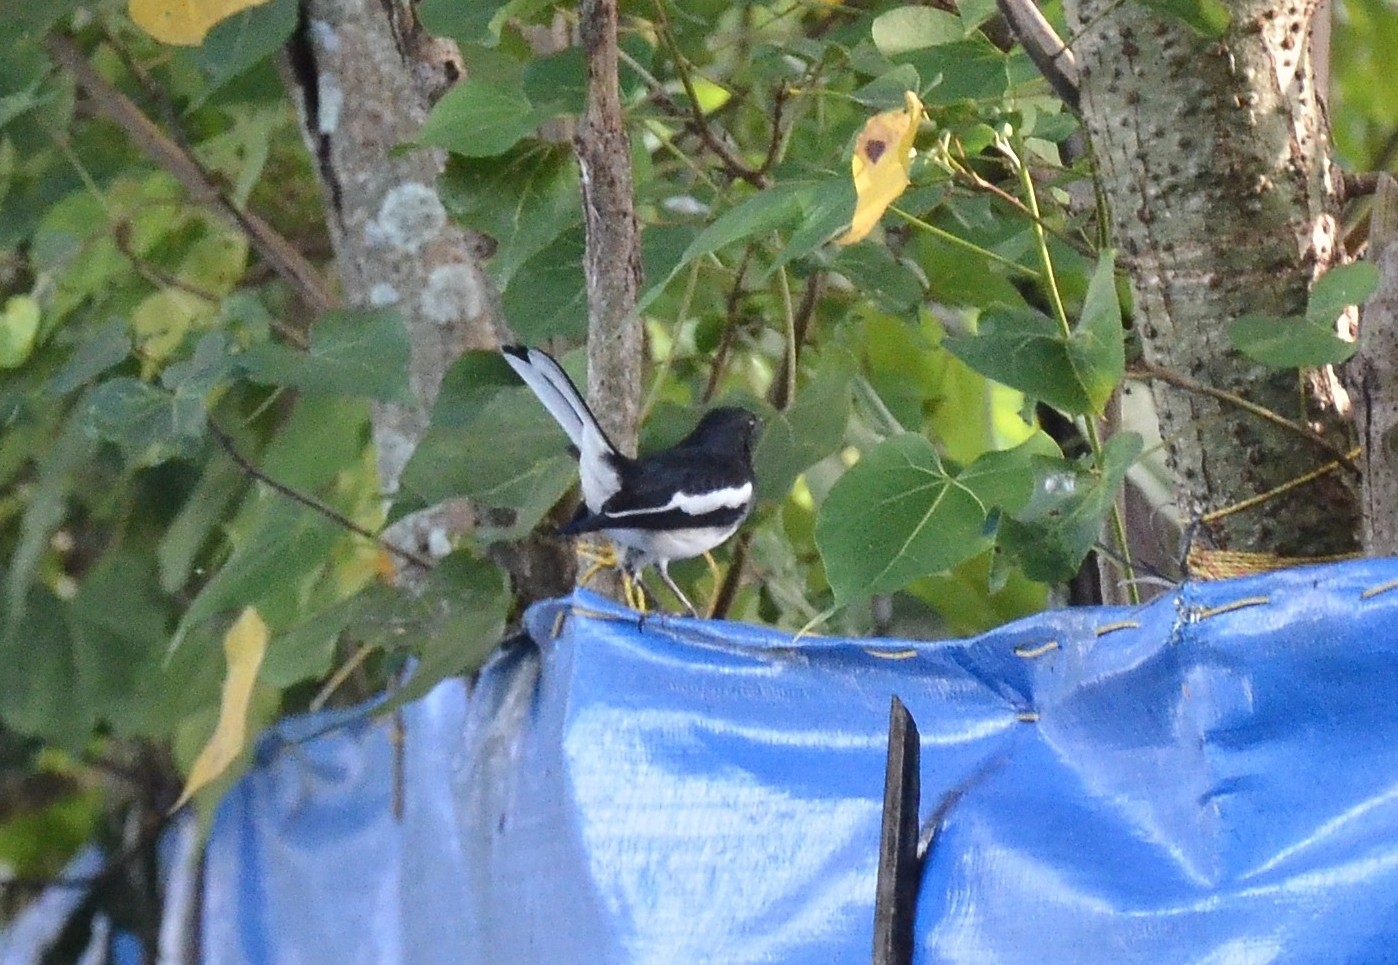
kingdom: Animalia
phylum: Chordata
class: Aves
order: Passeriformes
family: Muscicapidae
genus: Copsychus
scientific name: Copsychus saularis
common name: Oriental magpie-robin
